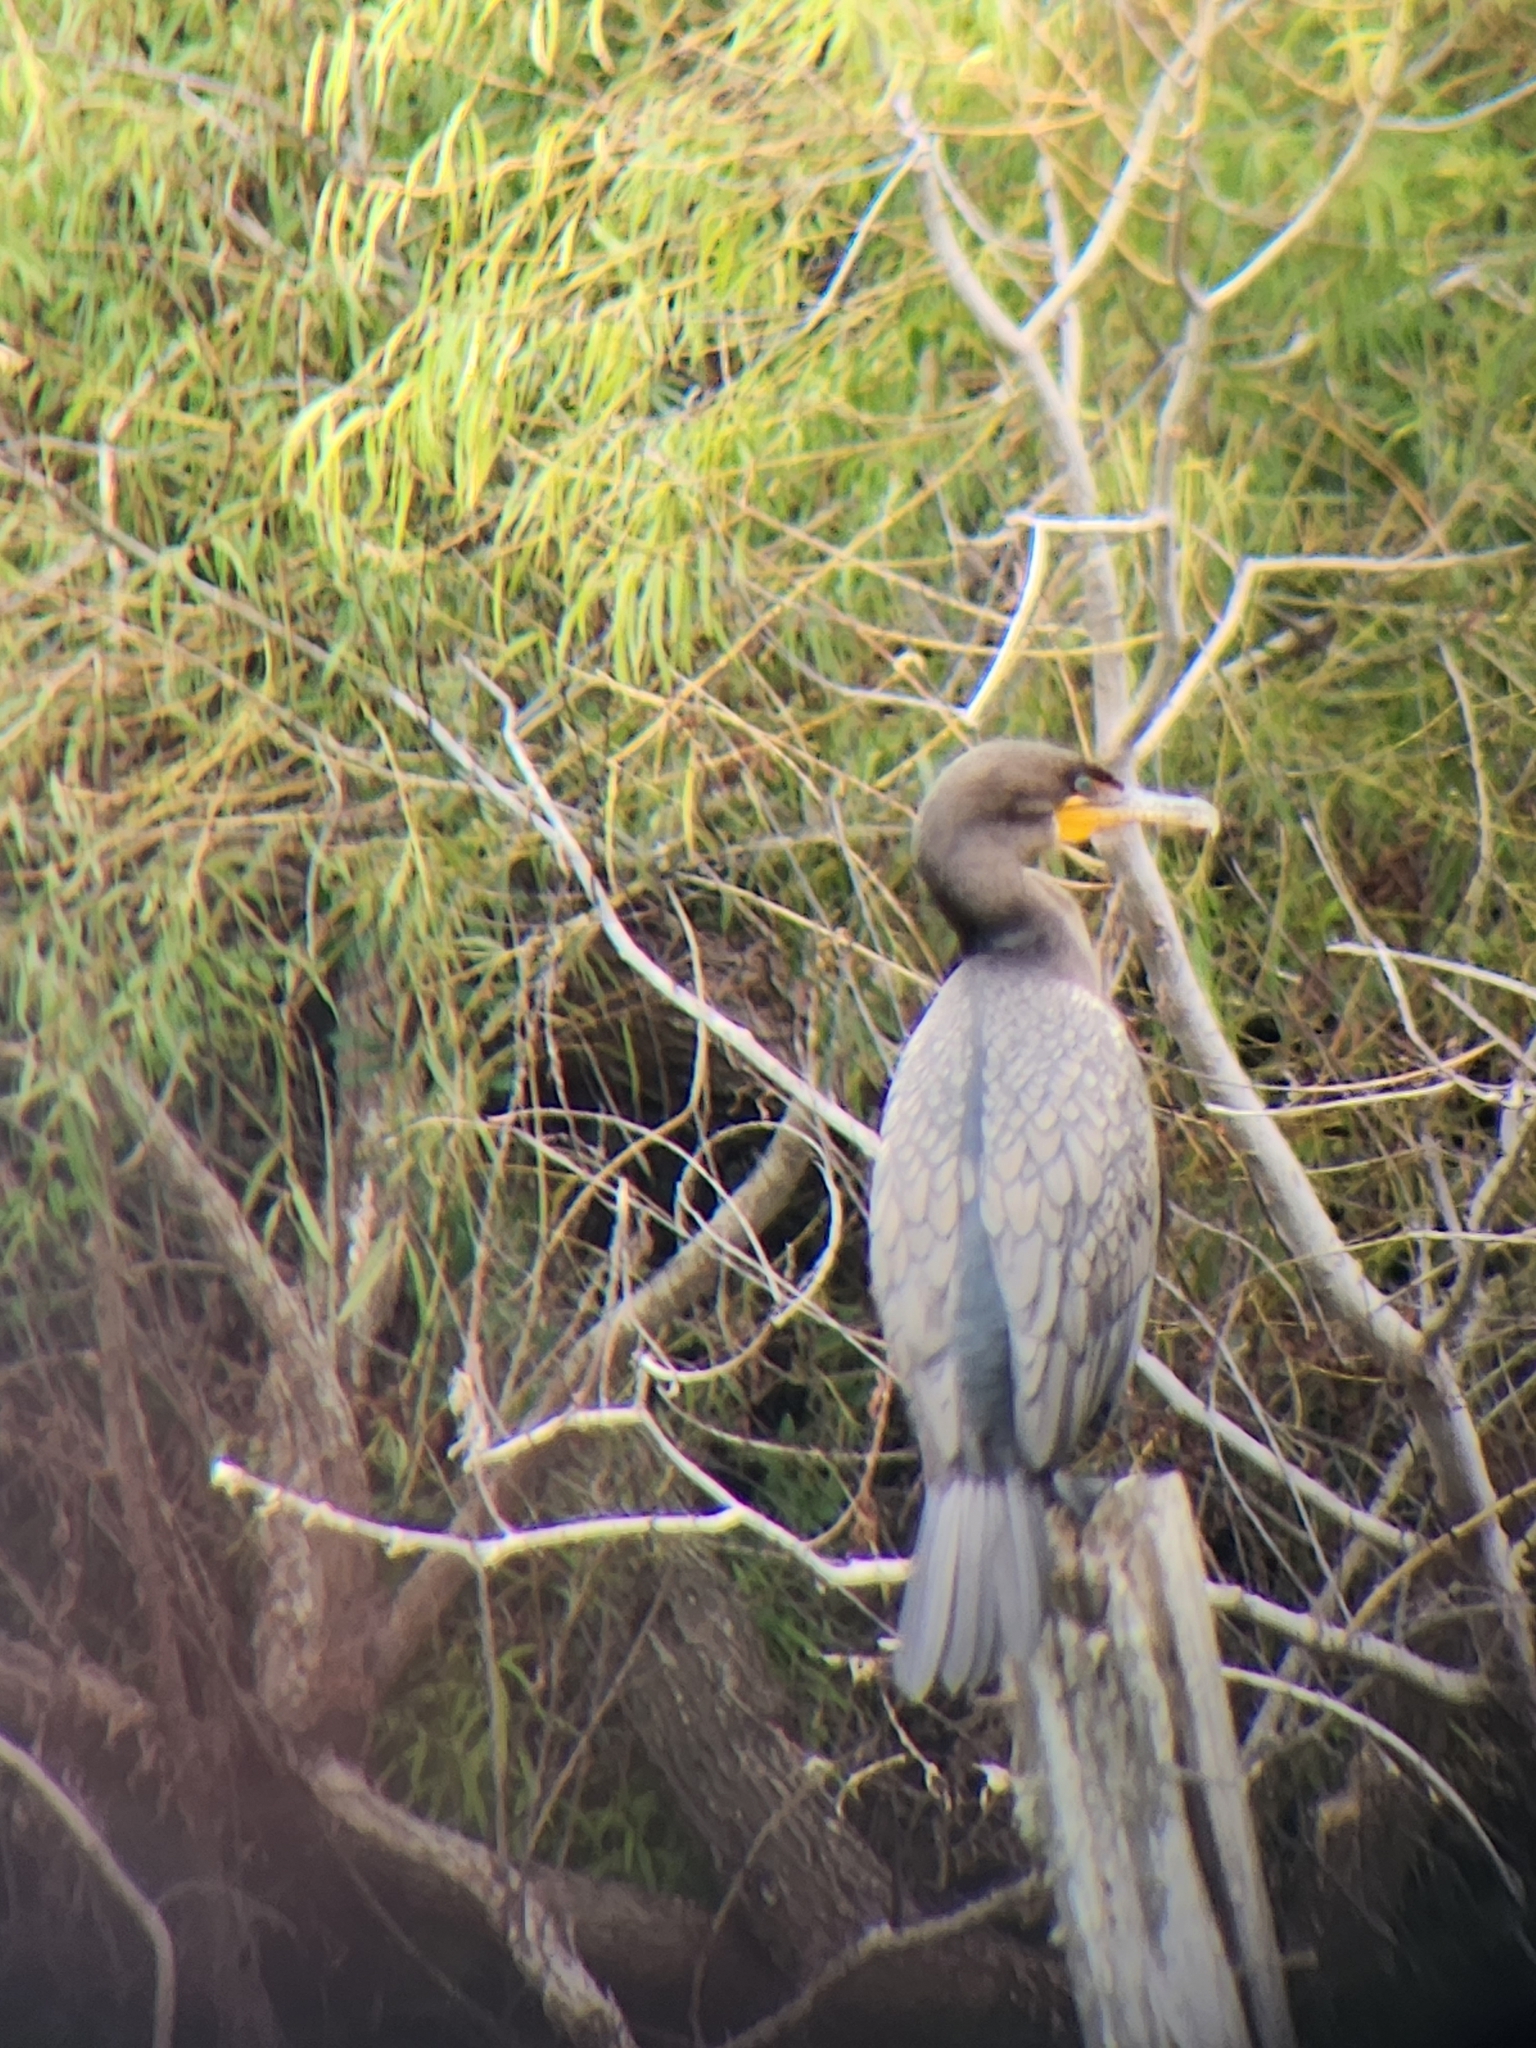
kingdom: Animalia
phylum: Chordata
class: Aves
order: Suliformes
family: Phalacrocoracidae
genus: Phalacrocorax
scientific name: Phalacrocorax auritus
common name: Double-crested cormorant
